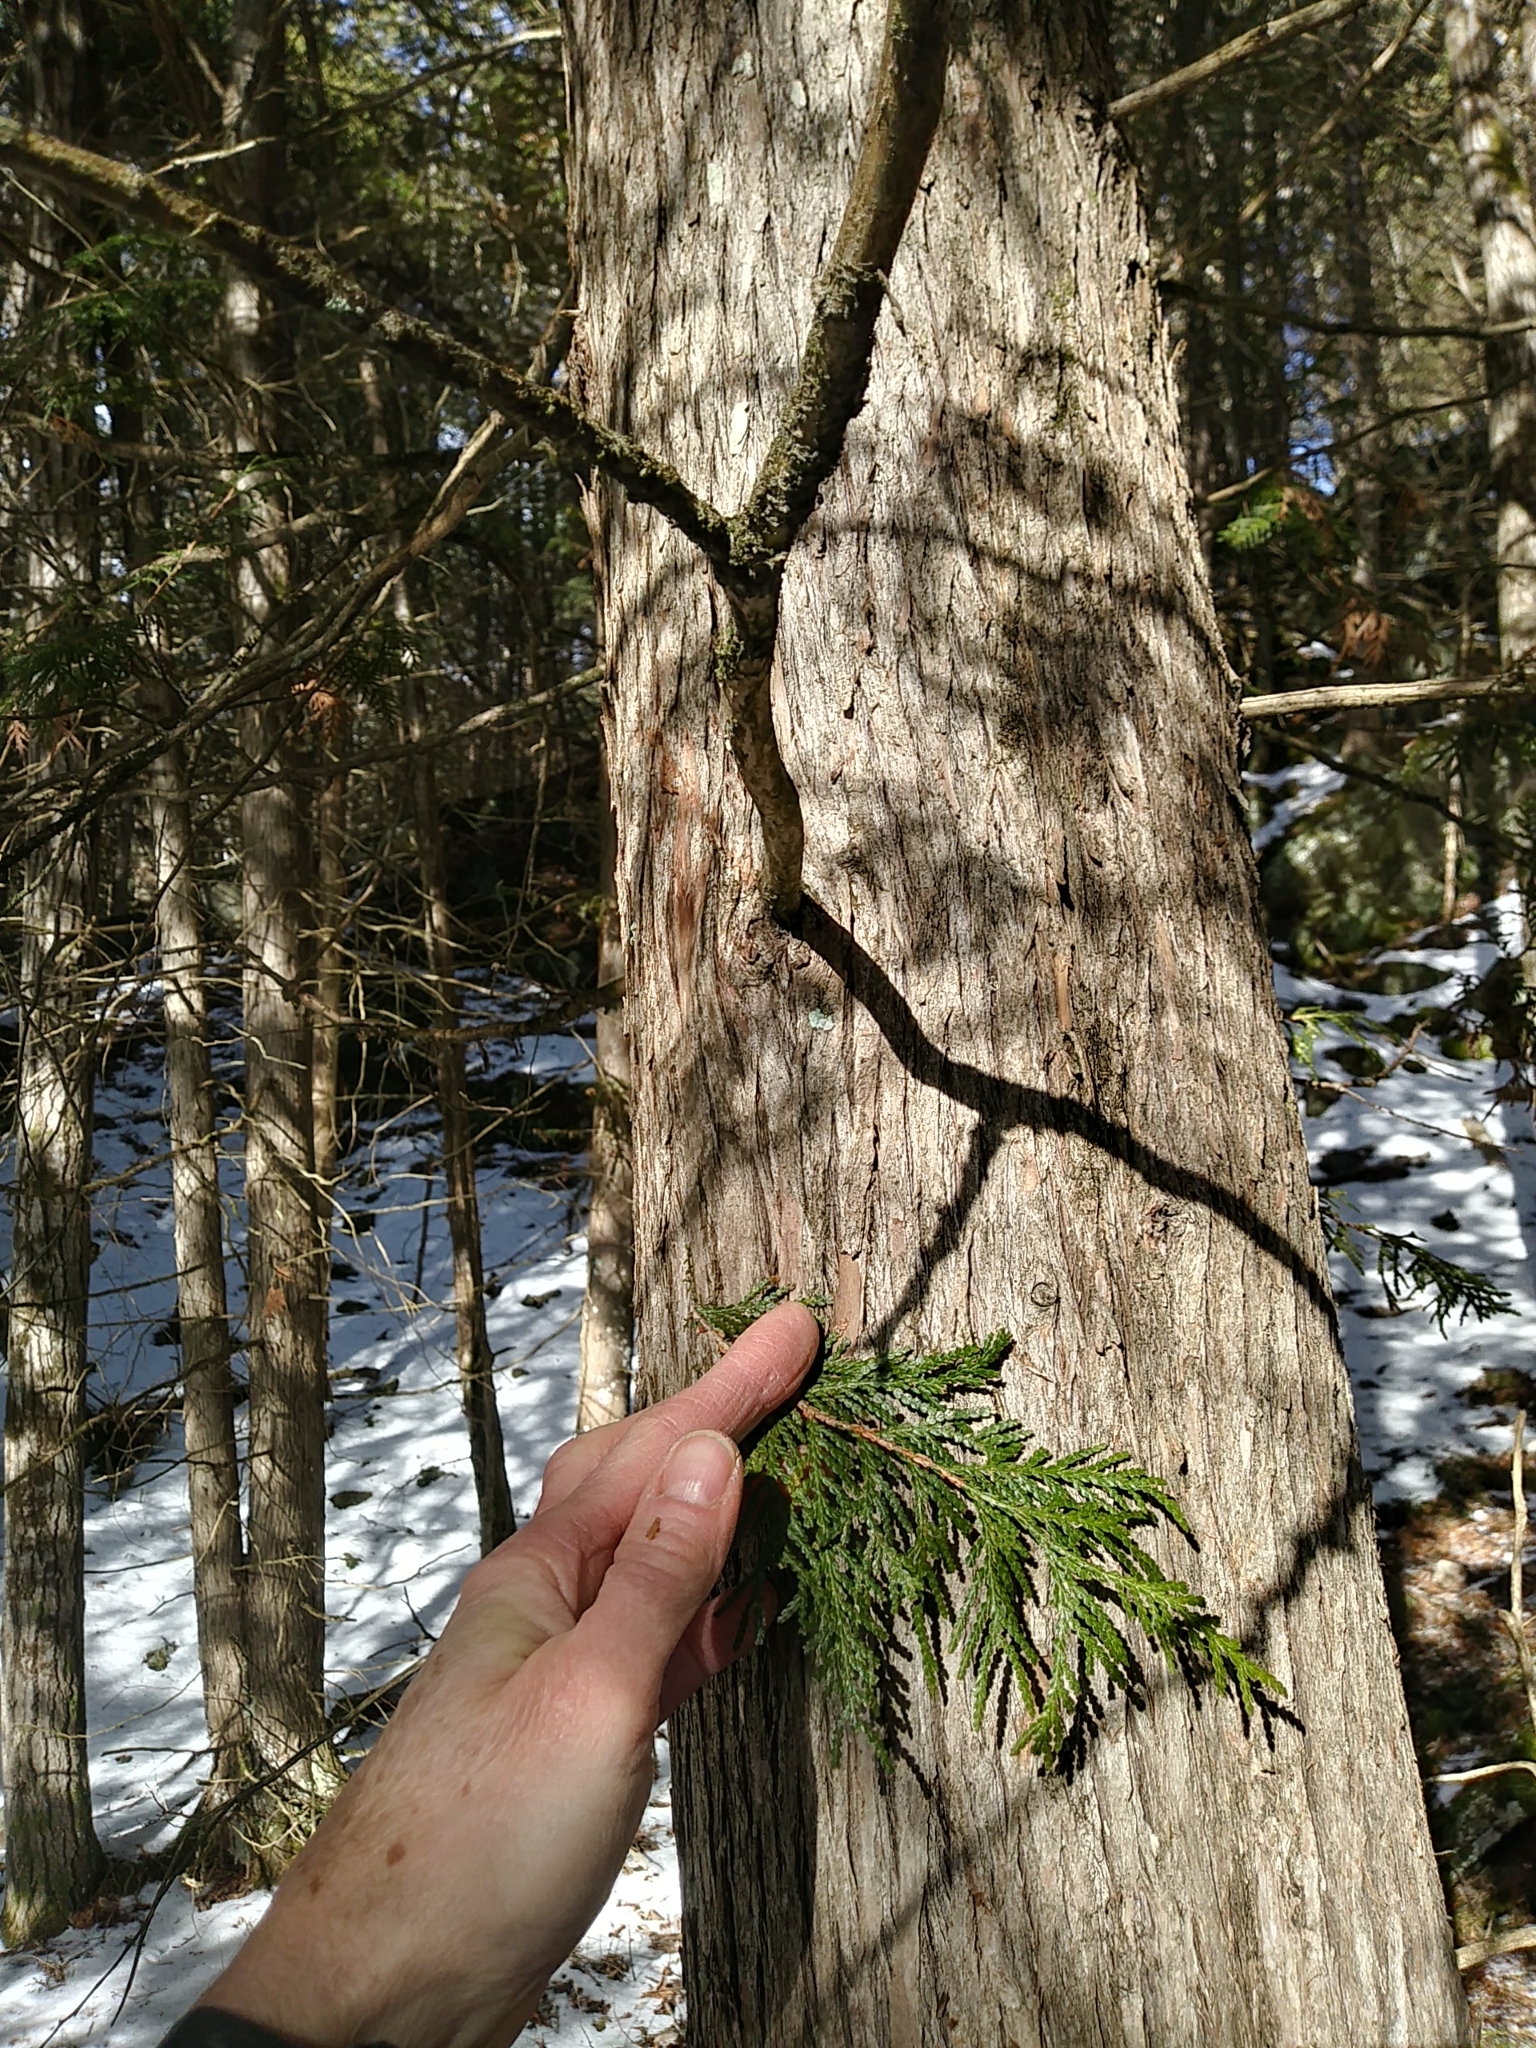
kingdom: Plantae
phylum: Tracheophyta
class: Pinopsida
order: Pinales
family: Cupressaceae
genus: Thuja
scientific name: Thuja occidentalis
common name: Northern white-cedar
